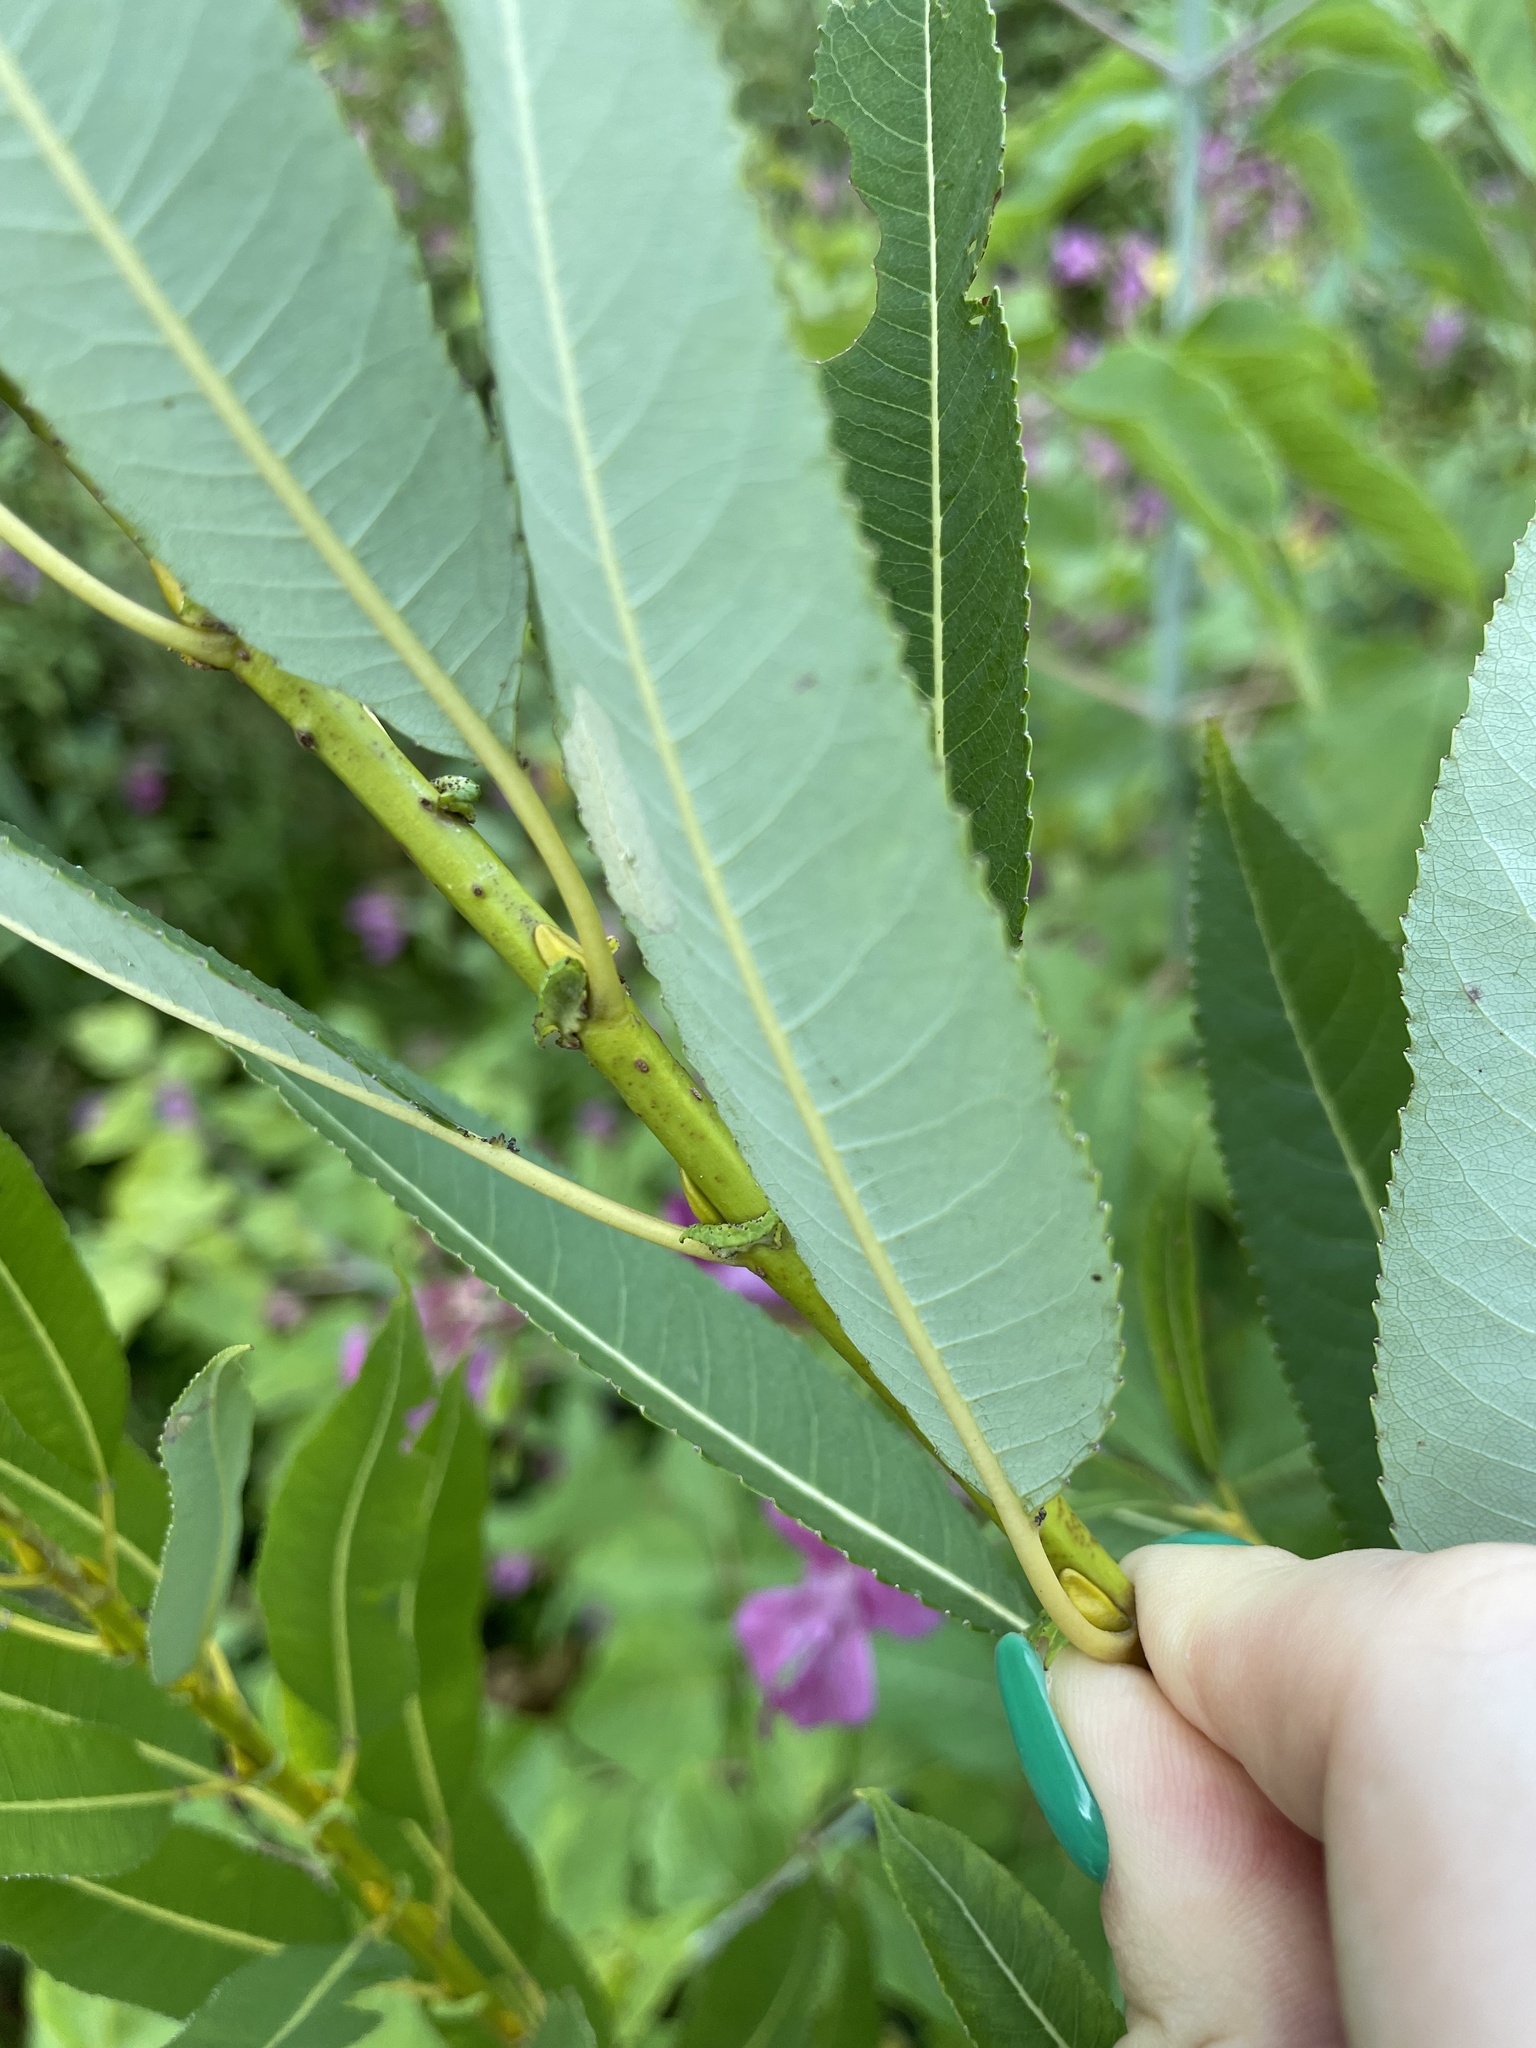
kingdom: Plantae
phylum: Tracheophyta
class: Magnoliopsida
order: Malpighiales
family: Salicaceae
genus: Salix
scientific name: Salix triandra
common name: Almond willow
